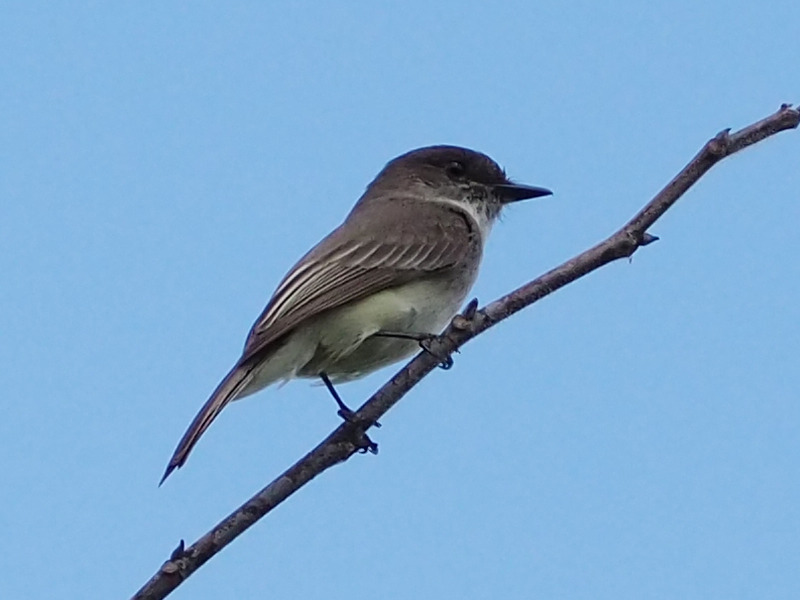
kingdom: Animalia
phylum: Chordata
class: Aves
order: Passeriformes
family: Tyrannidae
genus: Sayornis
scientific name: Sayornis phoebe
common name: Eastern phoebe
